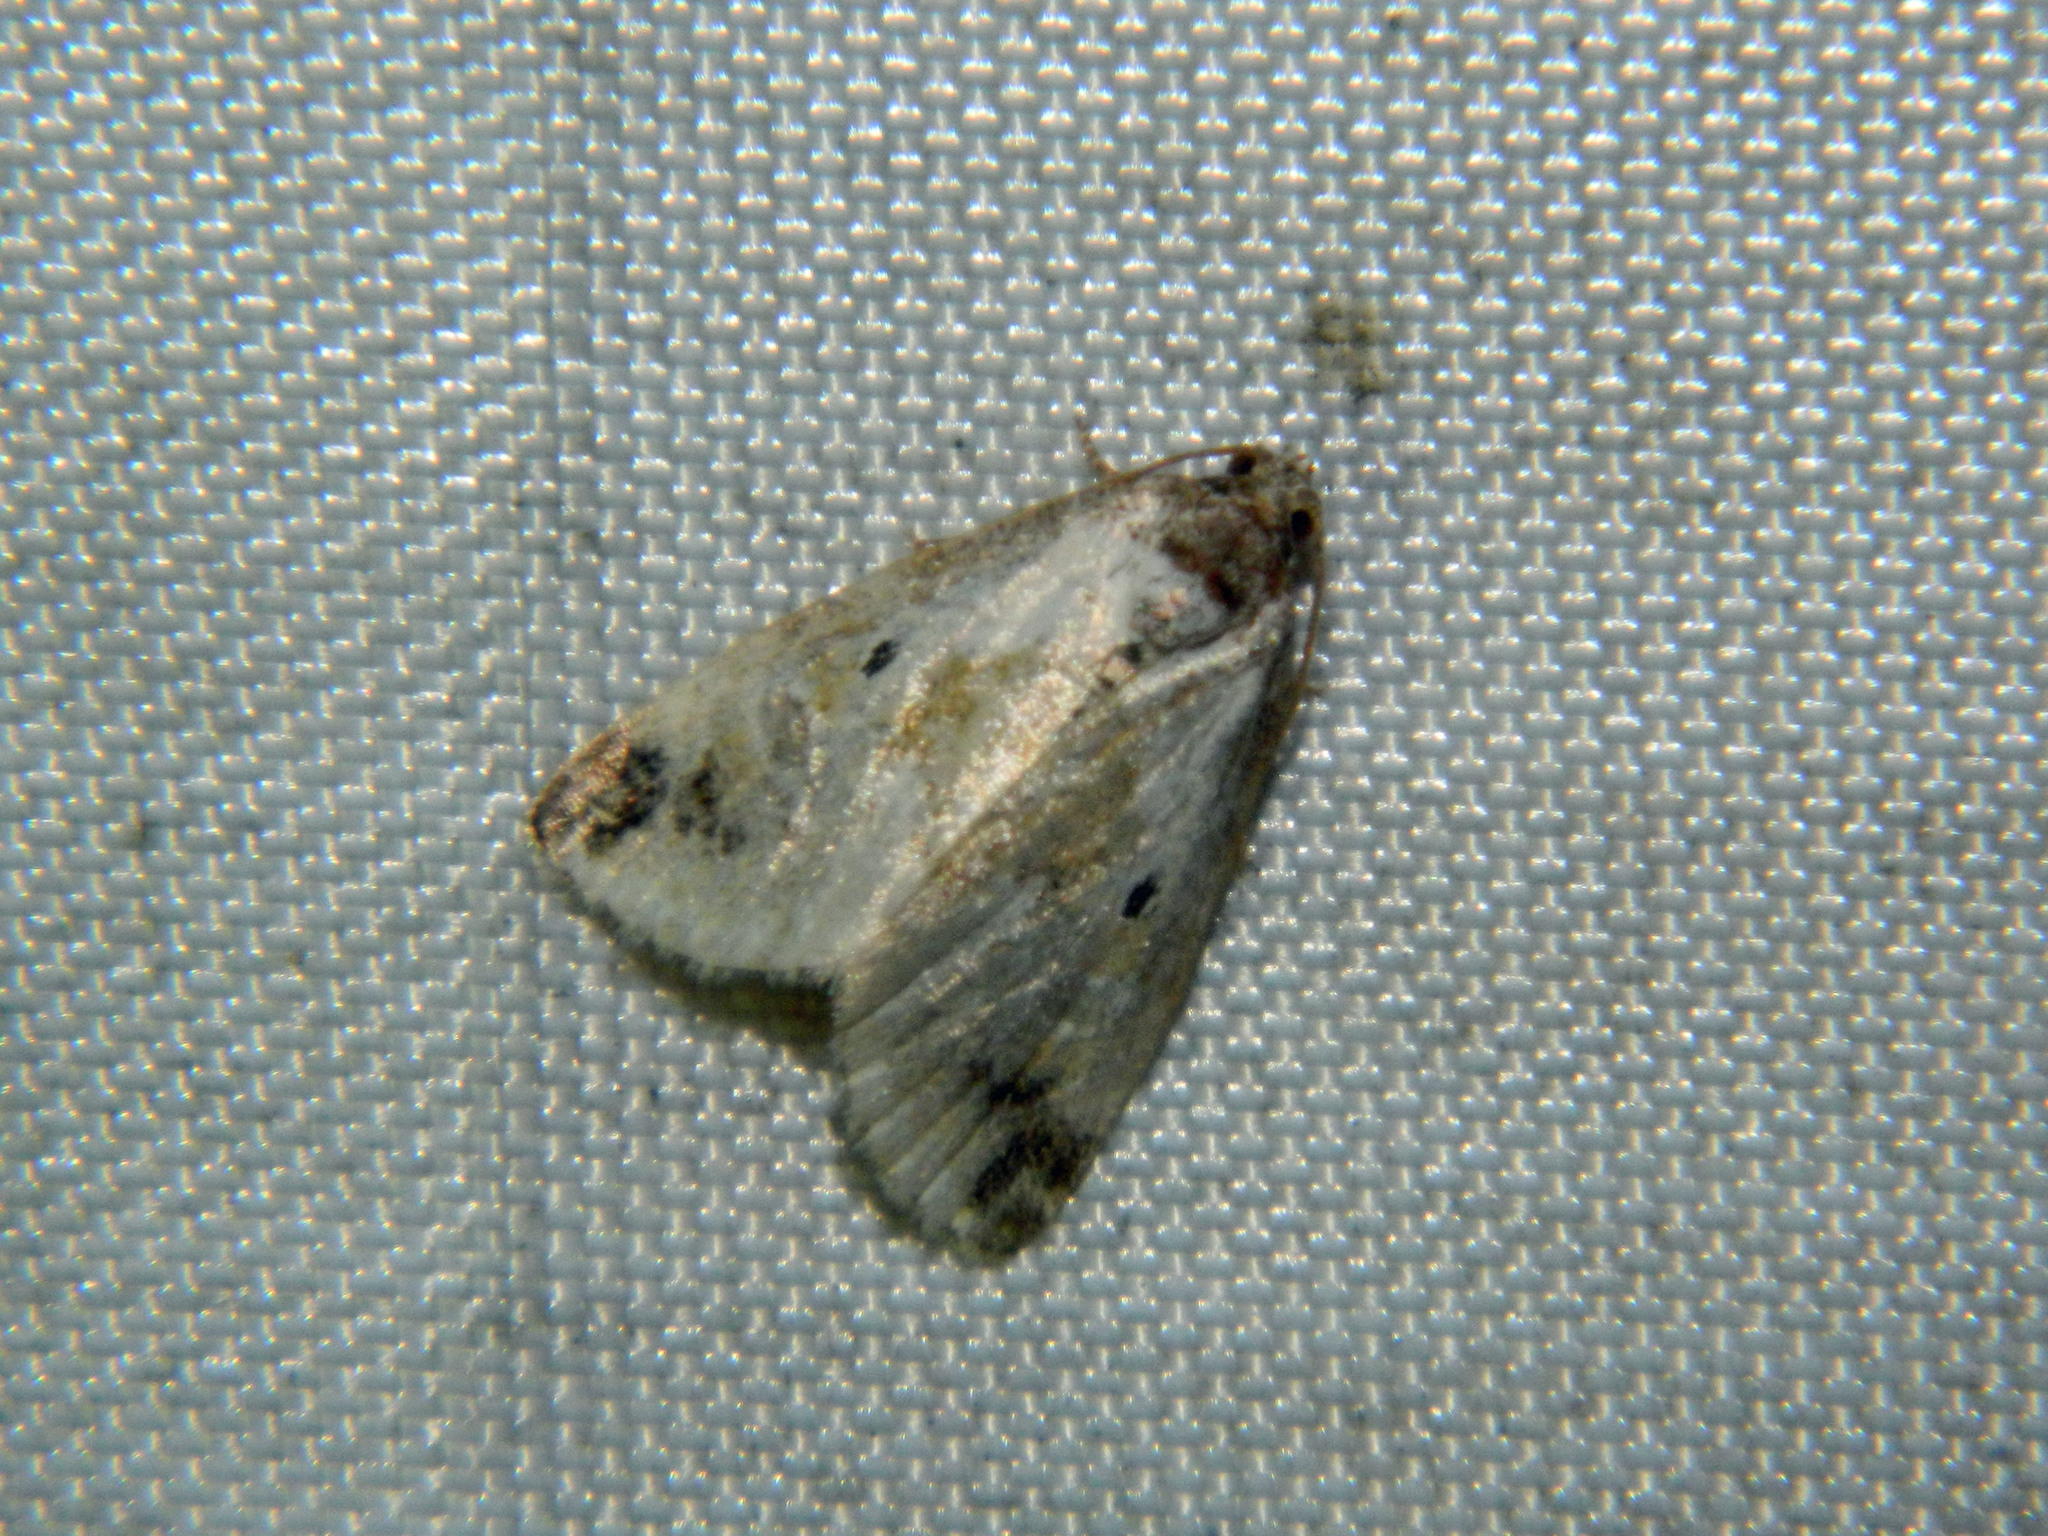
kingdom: Animalia
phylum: Arthropoda
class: Insecta
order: Lepidoptera
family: Noctuidae
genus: Maliattha
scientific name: Maliattha synochitis
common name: Black-dotted glyph
